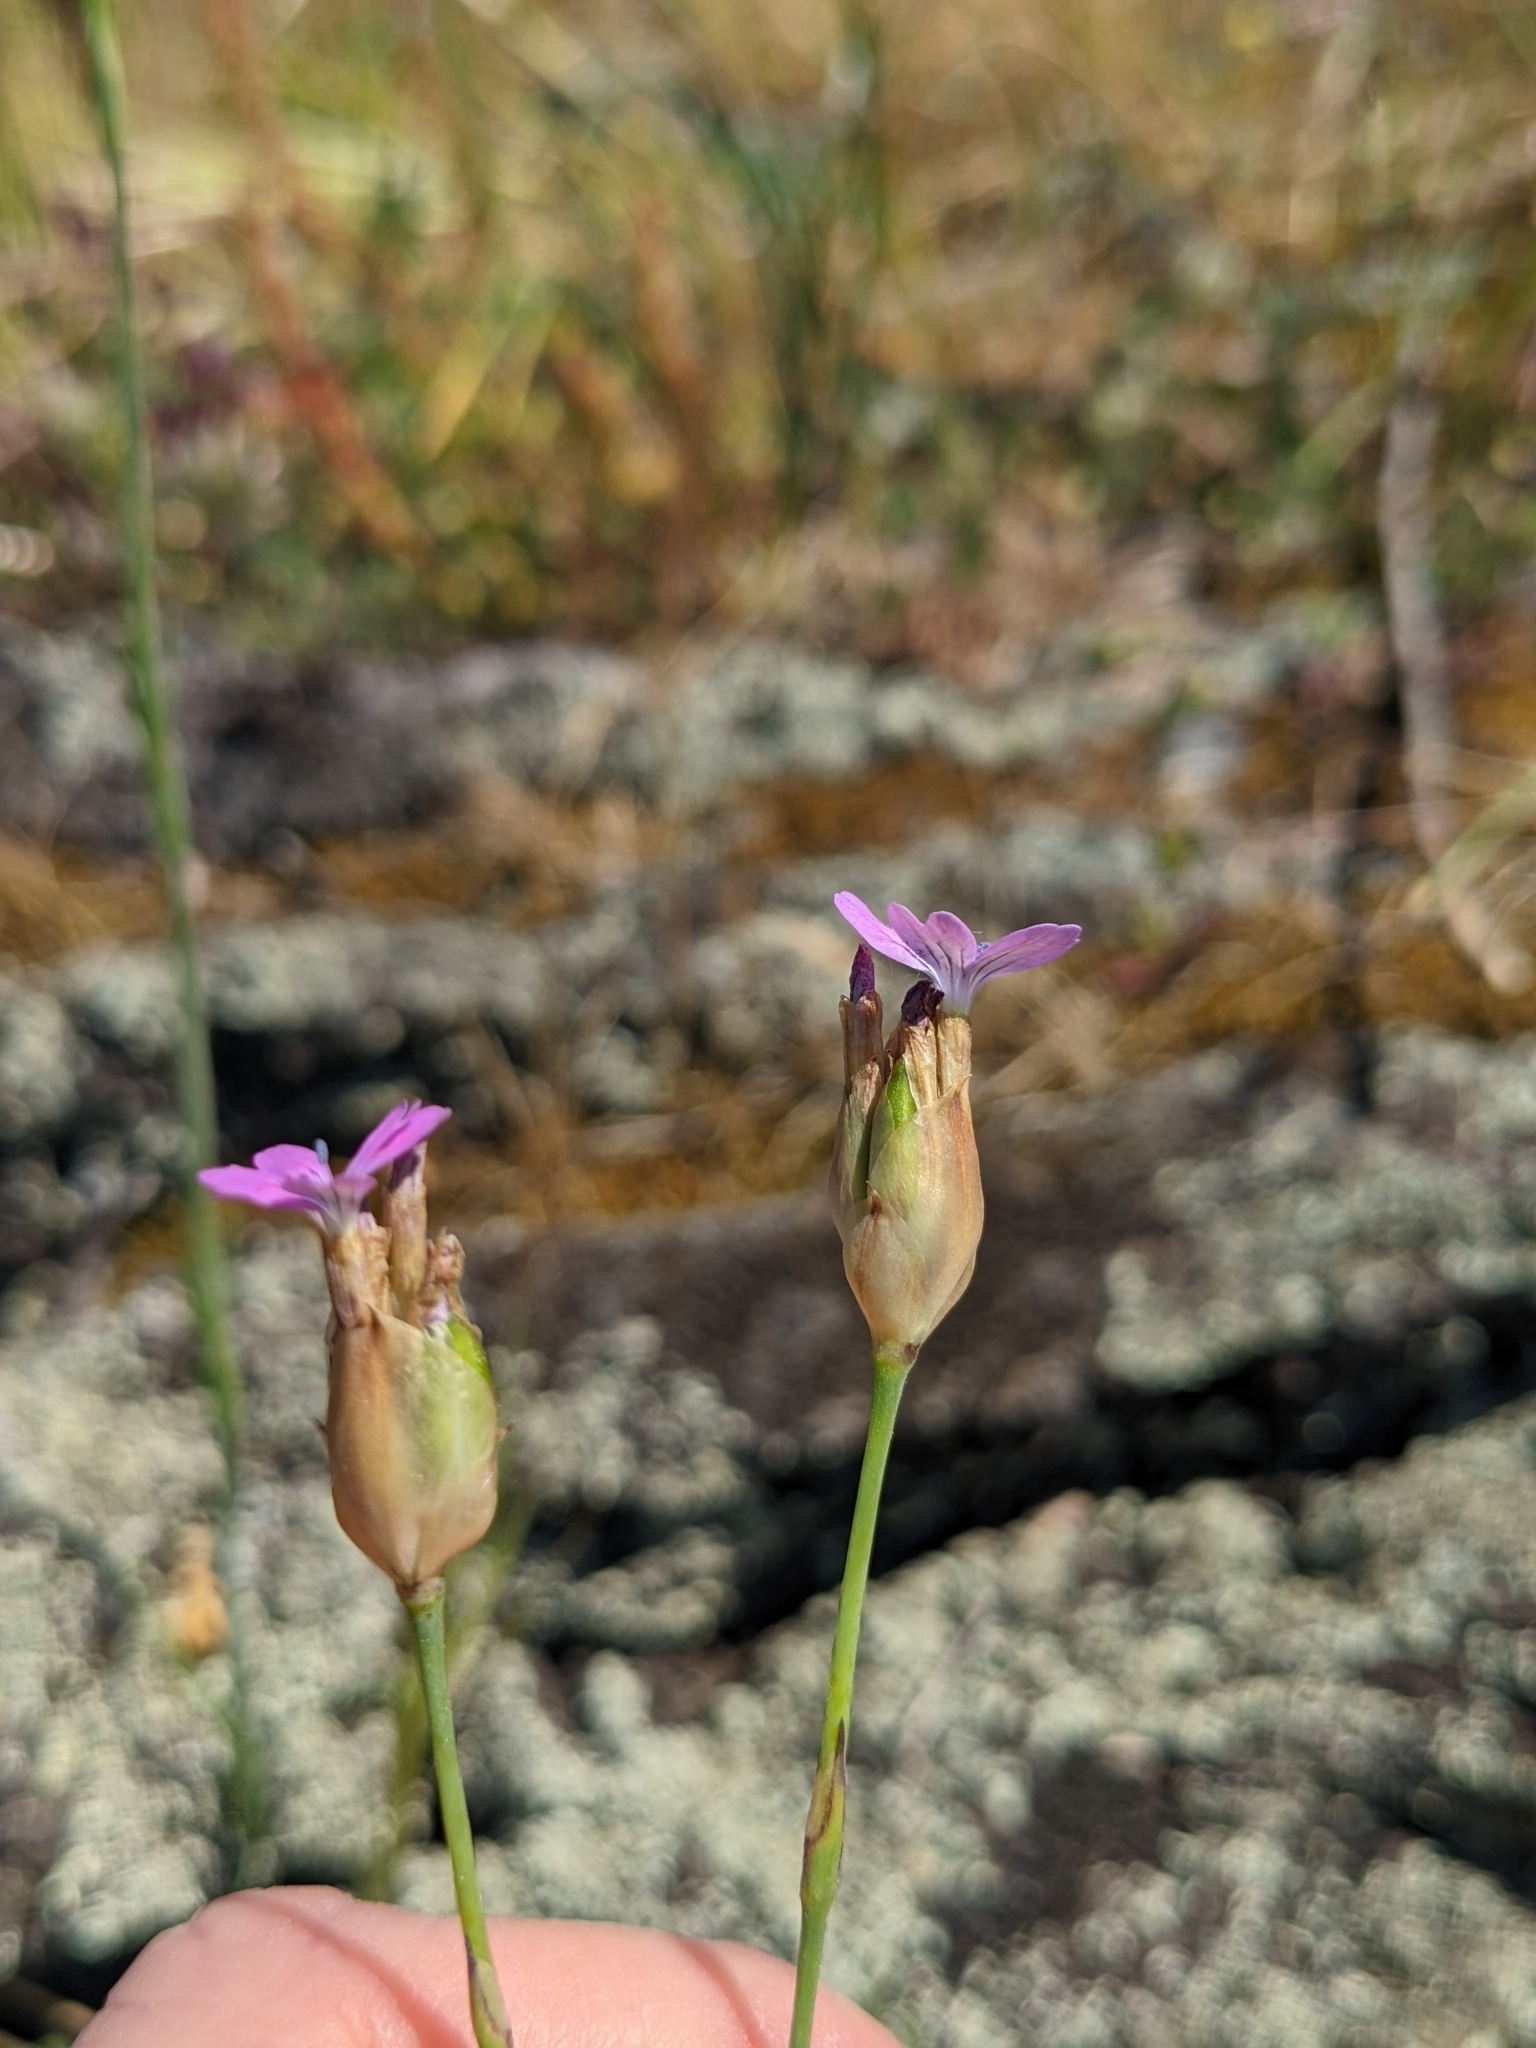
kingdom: Plantae
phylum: Tracheophyta
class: Magnoliopsida
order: Caryophyllales
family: Caryophyllaceae
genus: Petrorhagia
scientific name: Petrorhagia prolifera
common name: Proliferous pink
